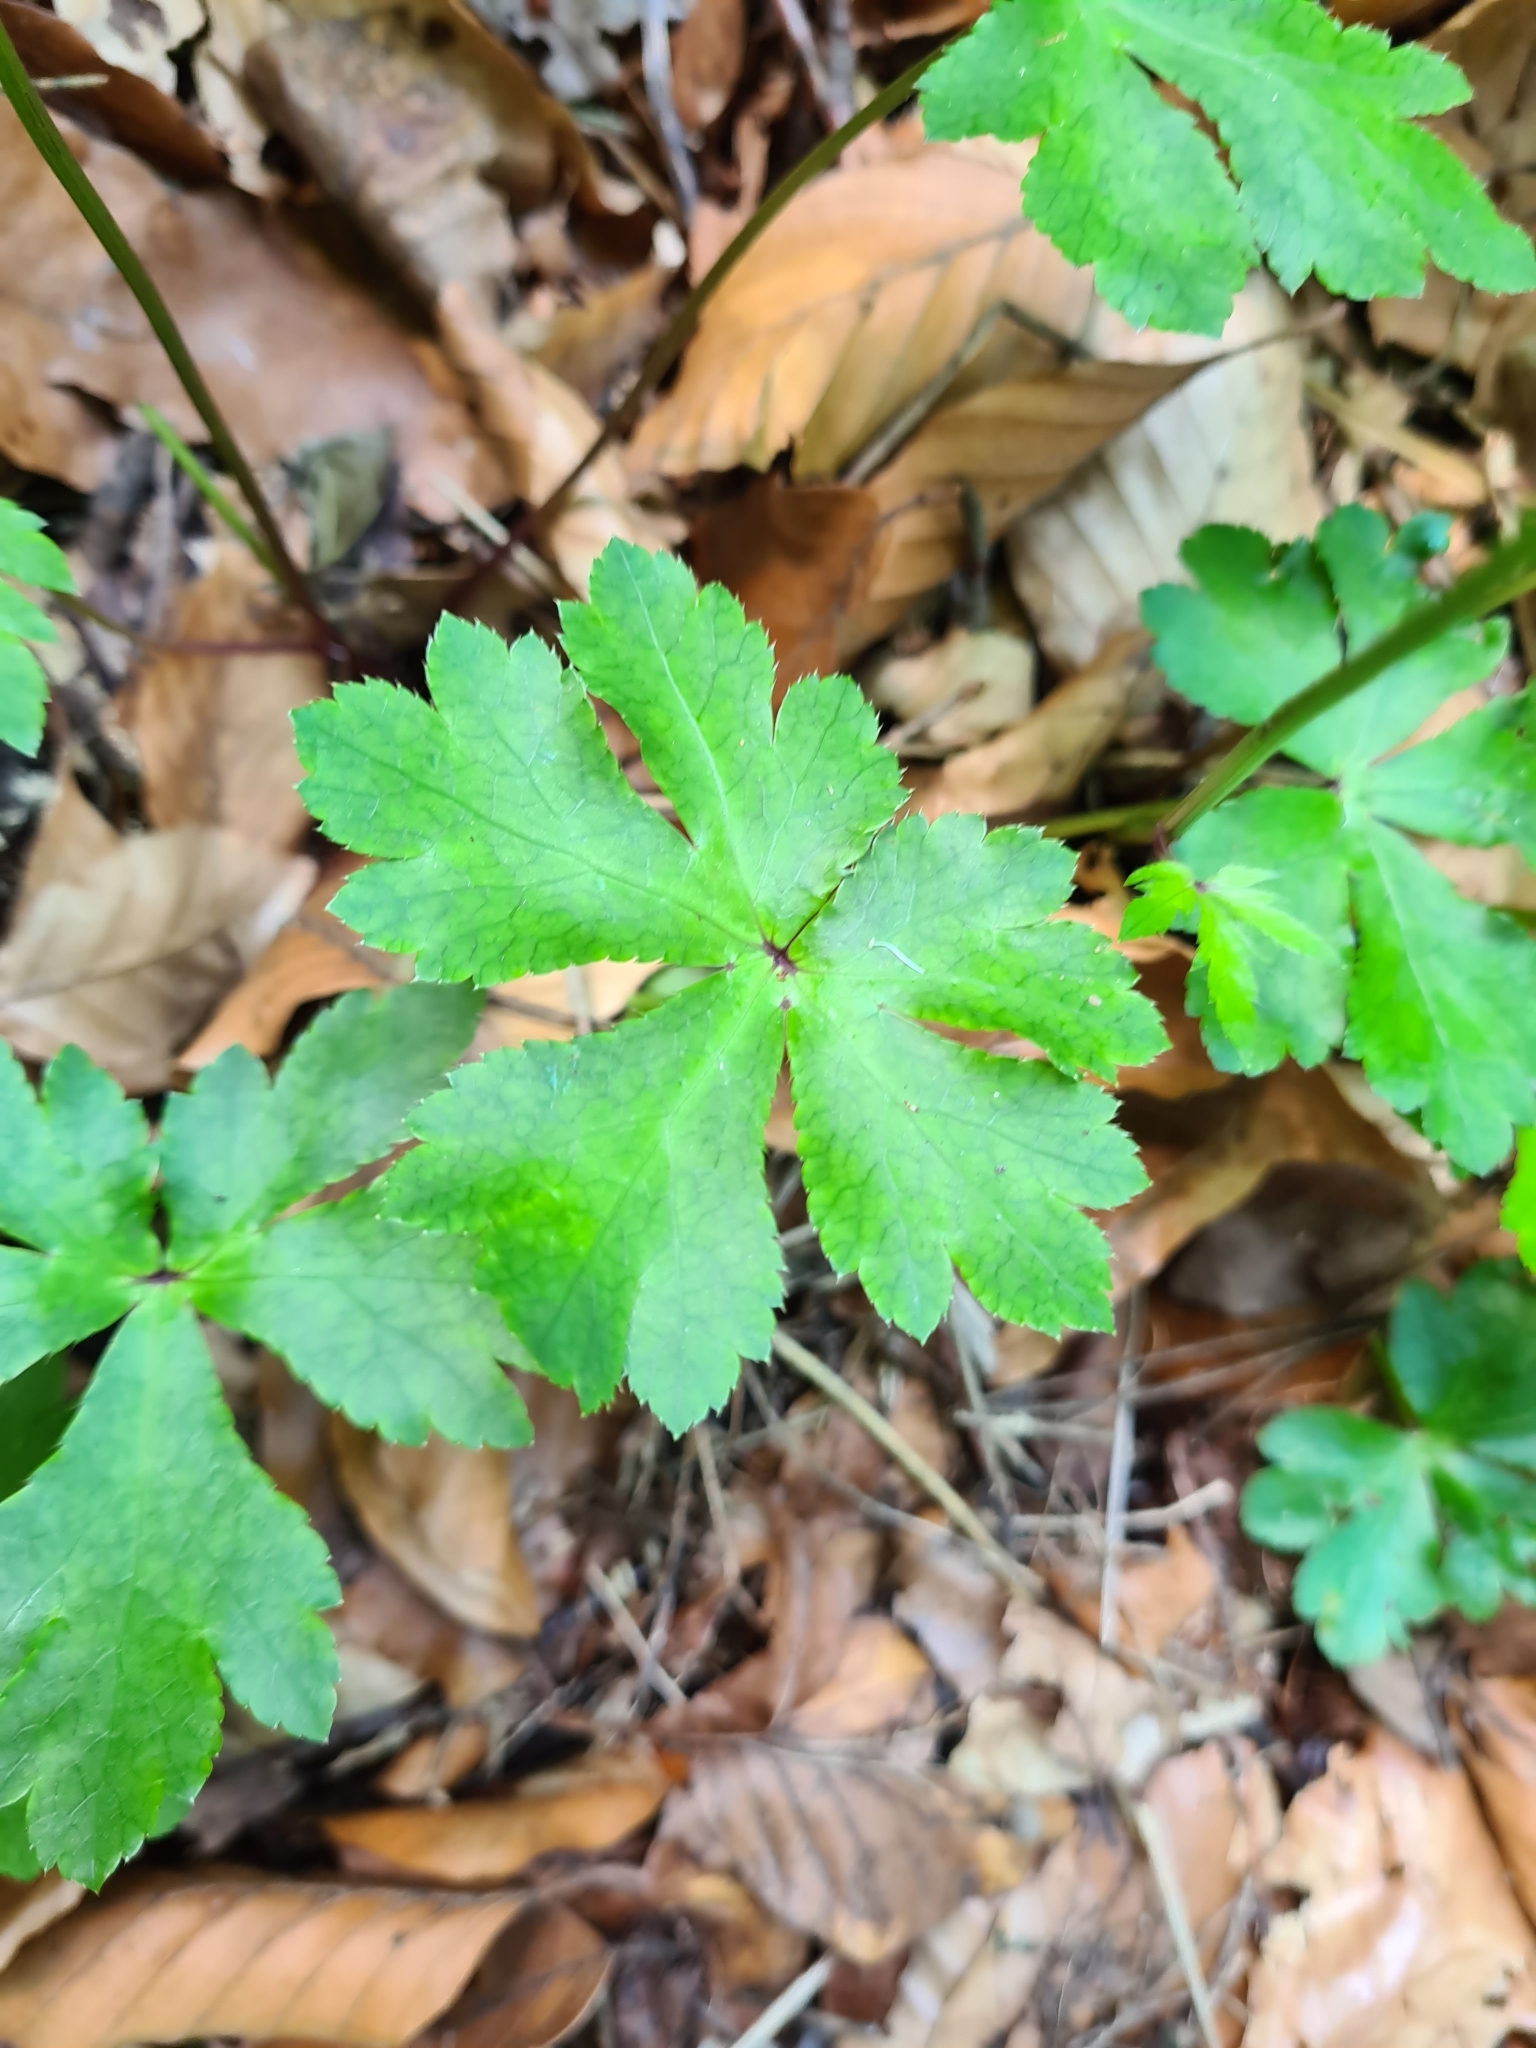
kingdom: Plantae
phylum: Tracheophyta
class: Magnoliopsida
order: Apiales
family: Apiaceae
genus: Sanicula
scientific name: Sanicula europaea
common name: Sanicle
